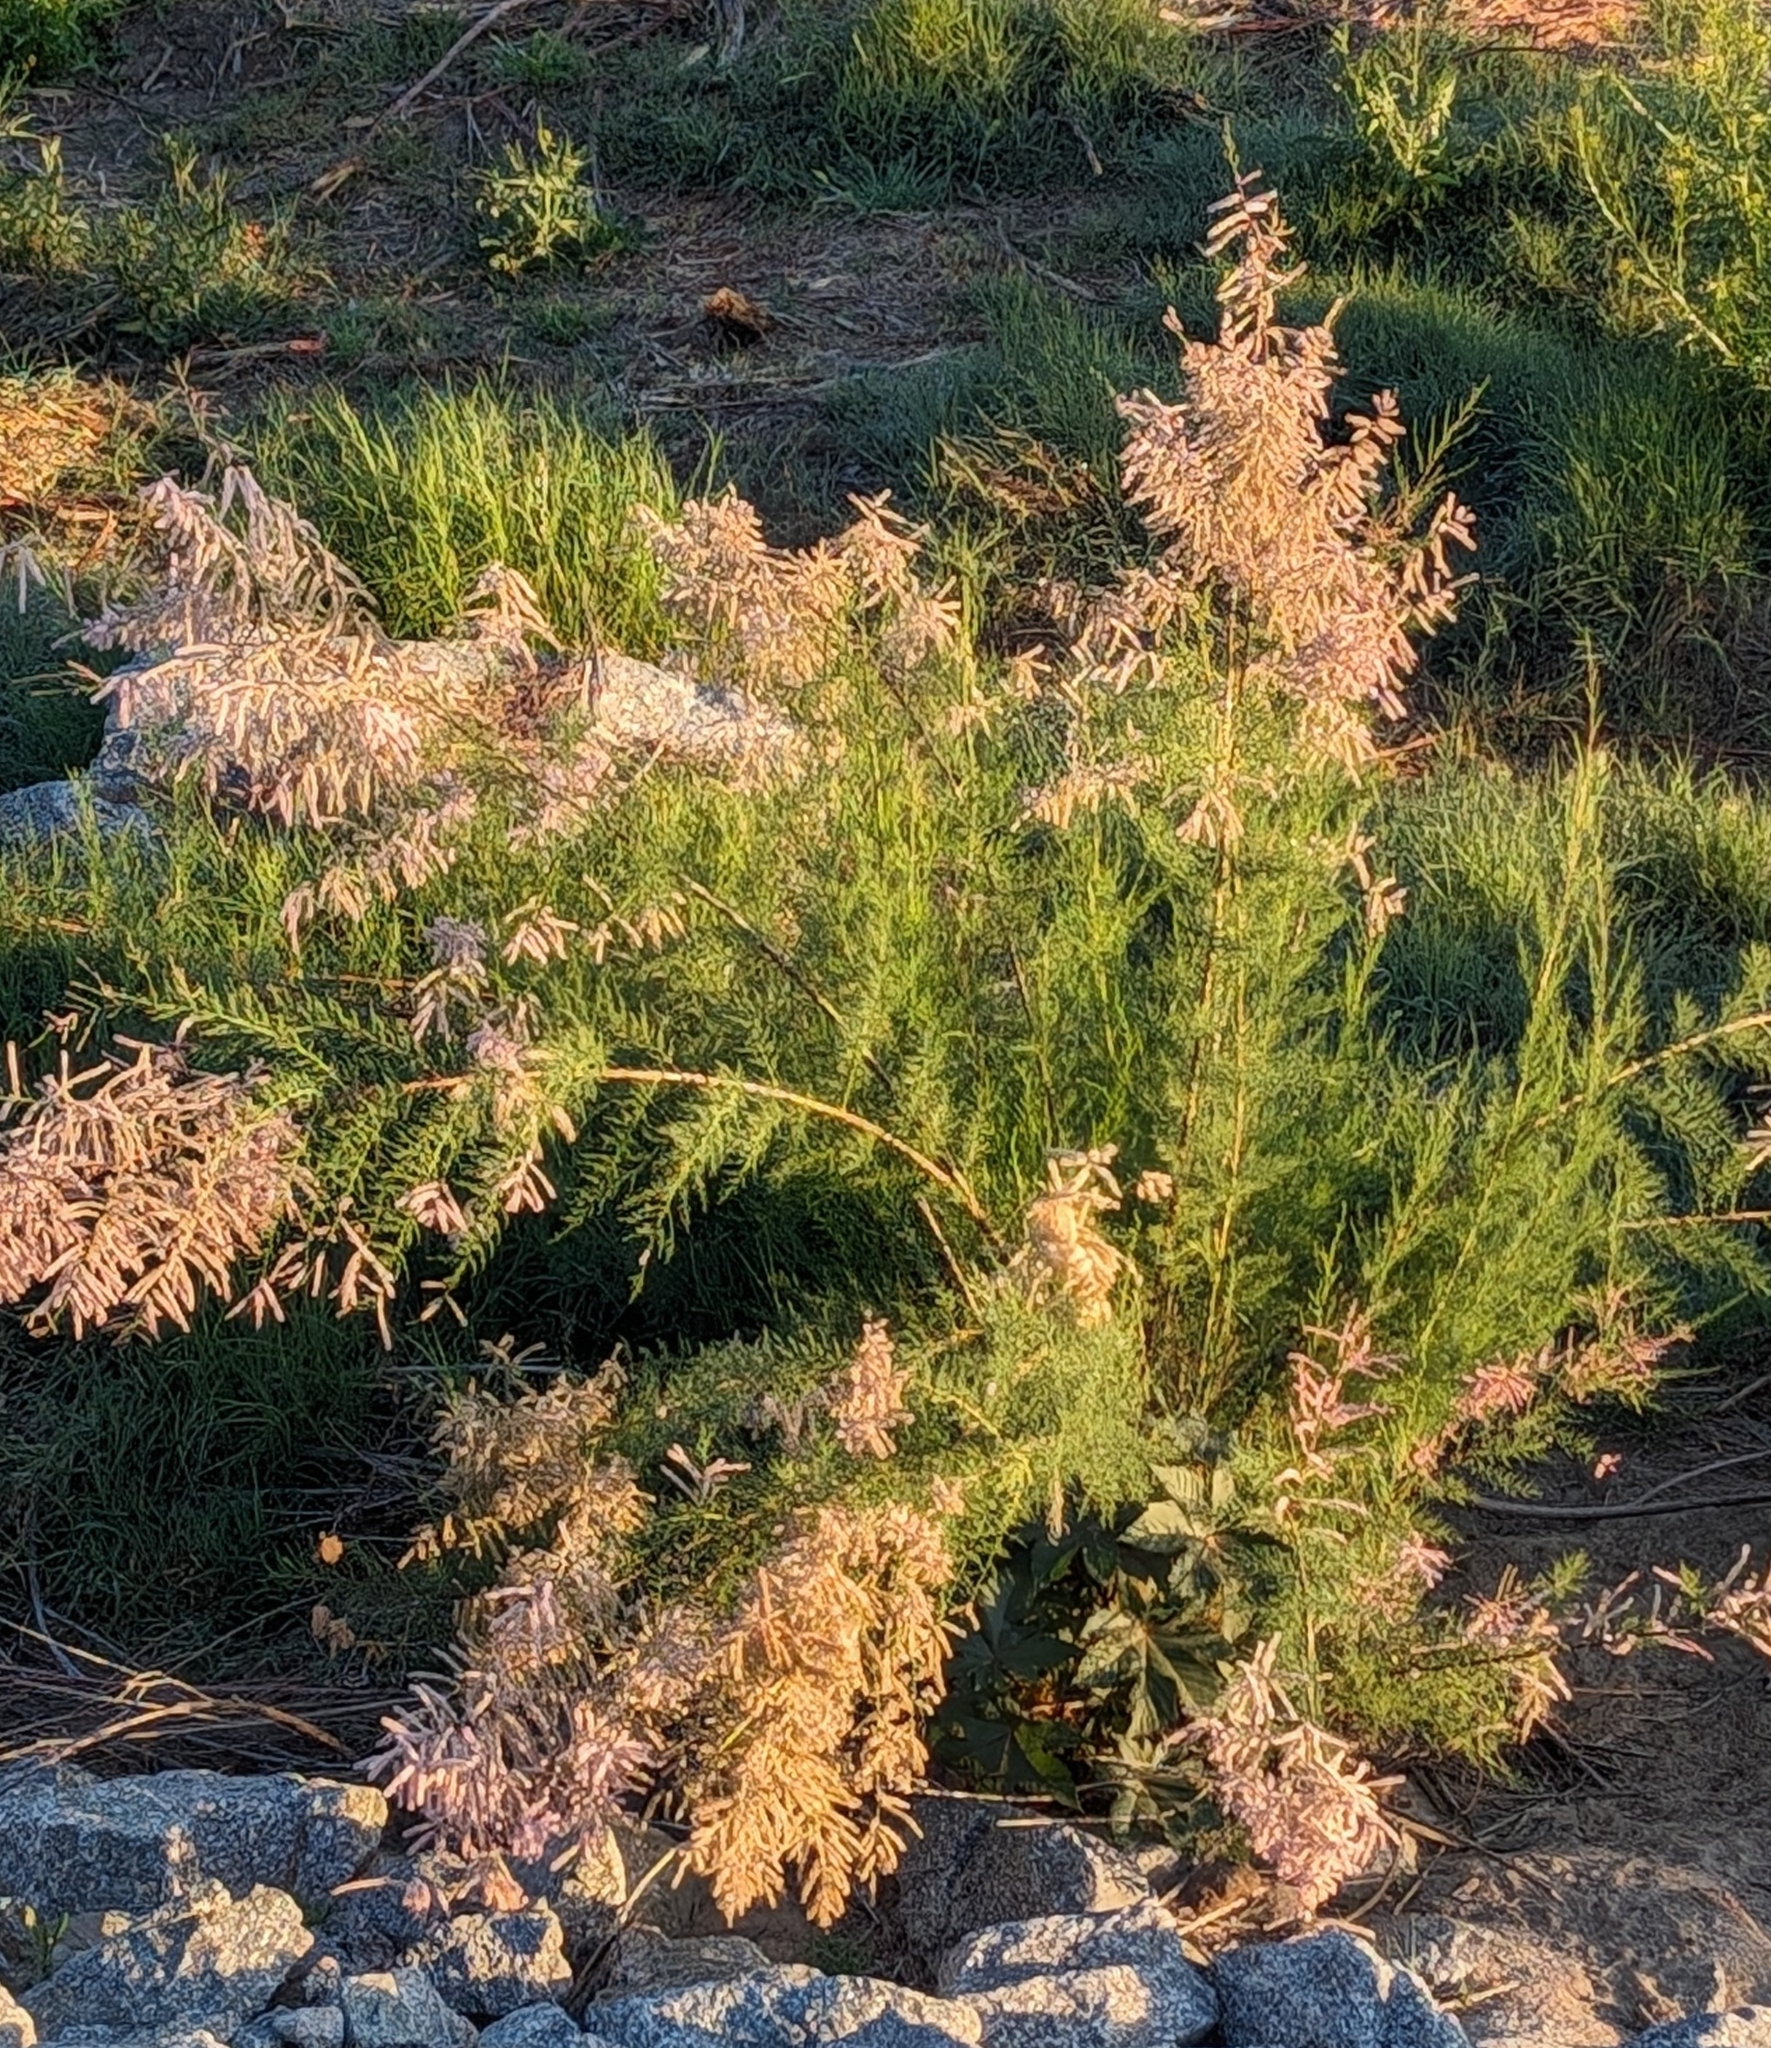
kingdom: Plantae
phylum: Tracheophyta
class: Magnoliopsida
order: Caryophyllales
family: Tamaricaceae
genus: Tamarix
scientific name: Tamarix ramosissima
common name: Pink tamarisk
